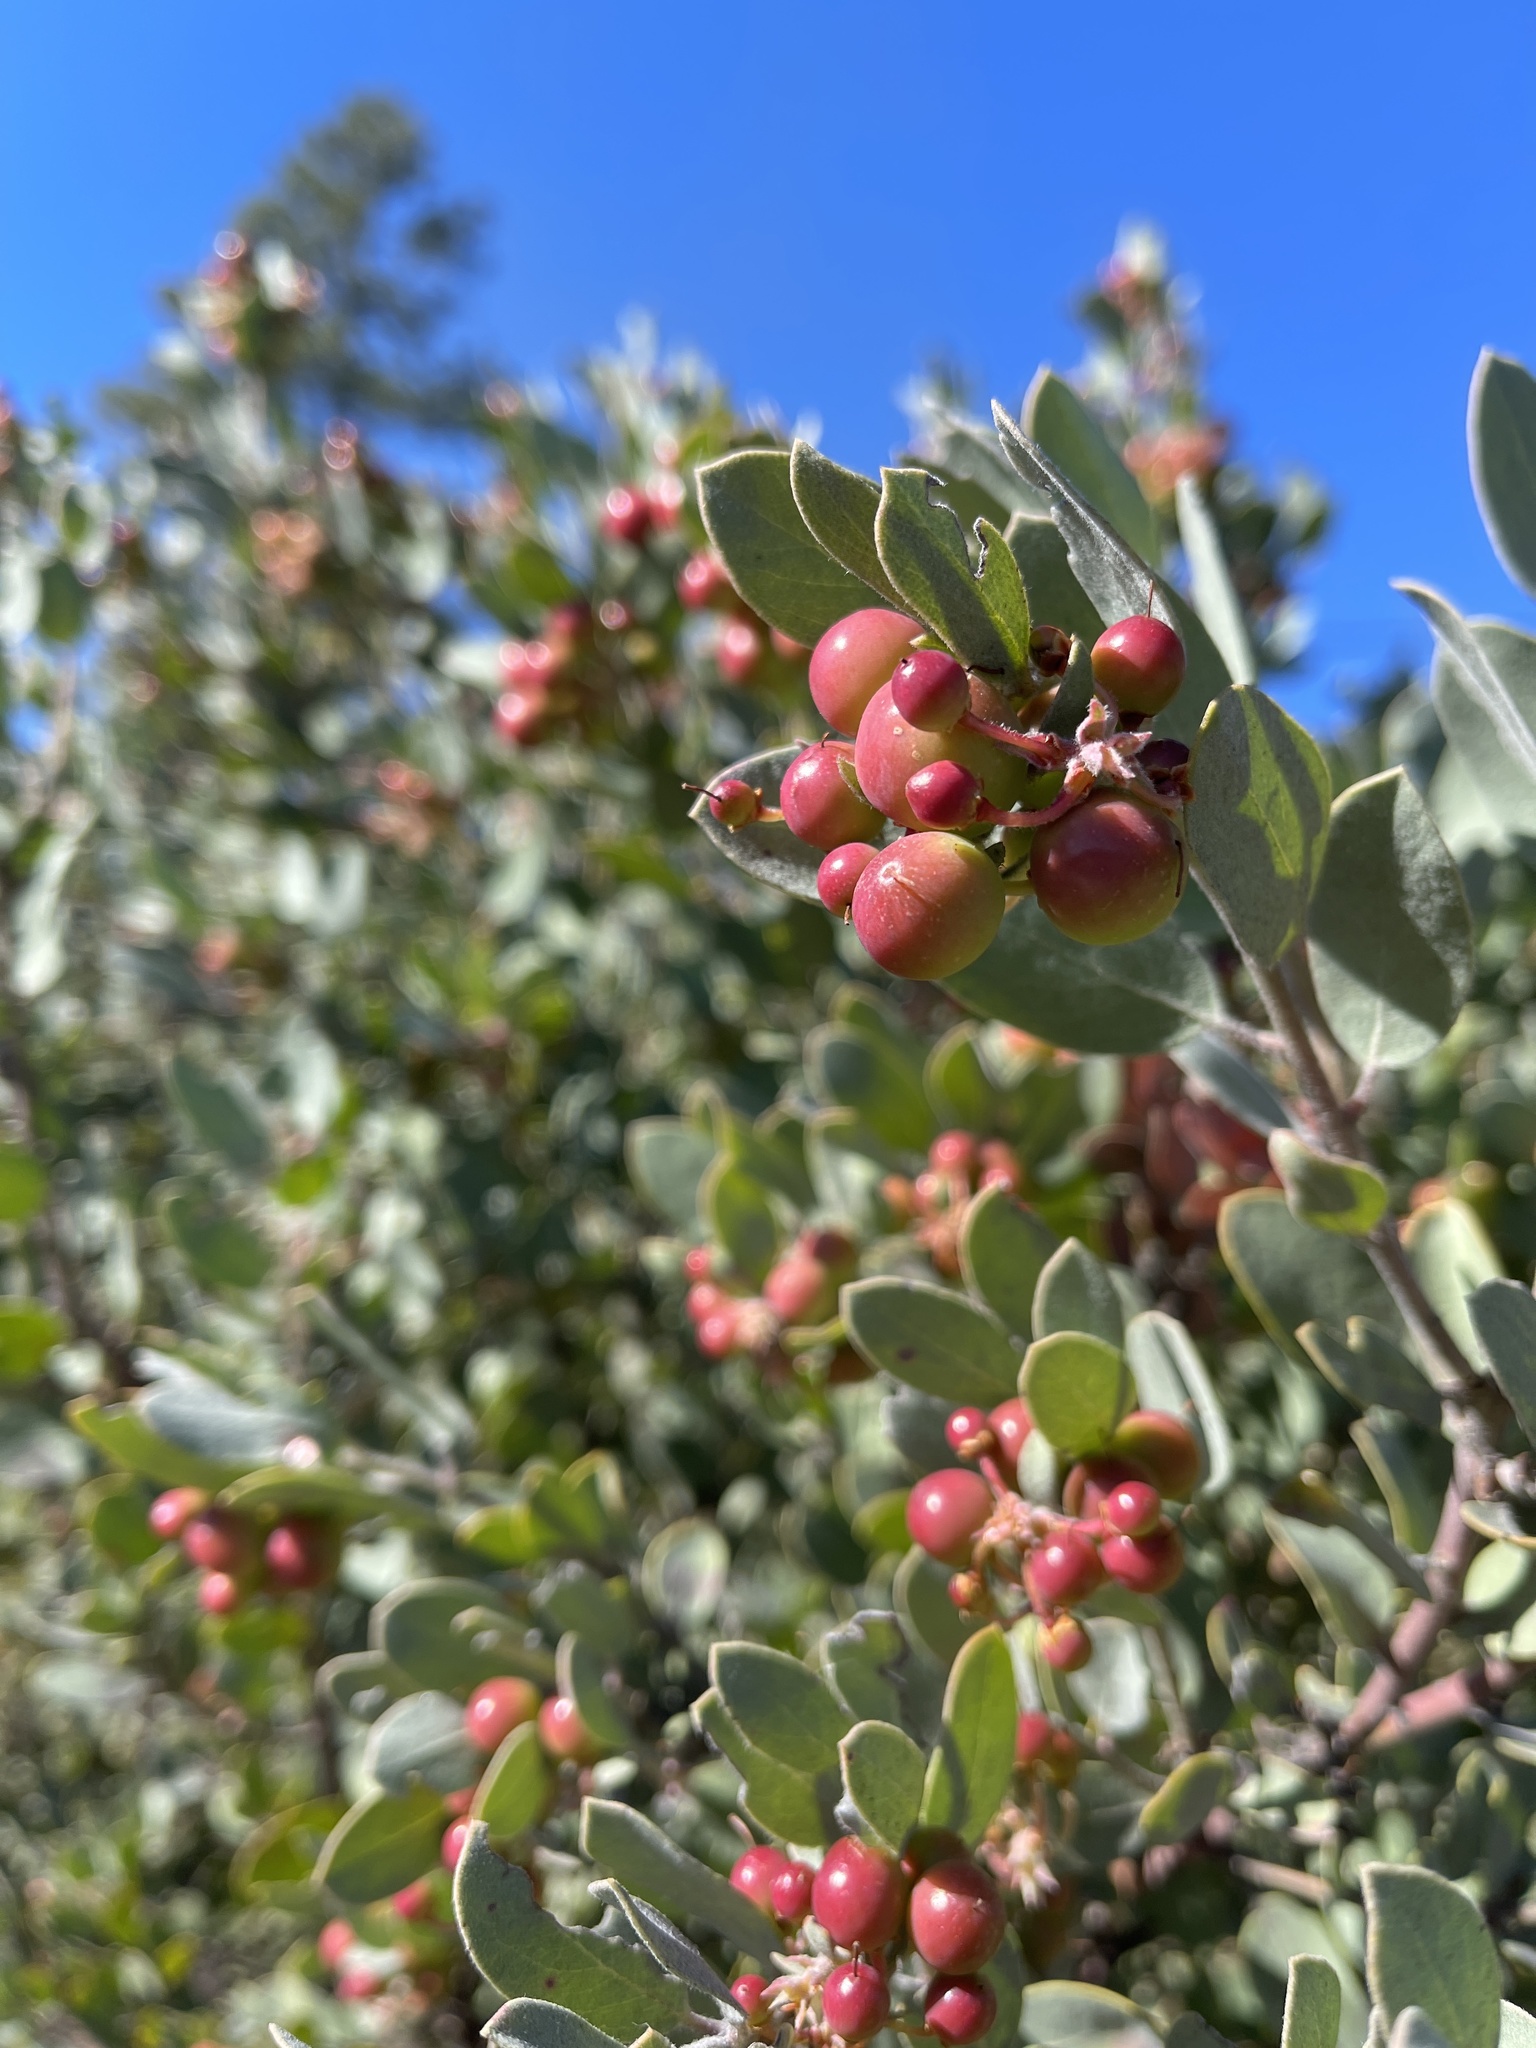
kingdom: Plantae
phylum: Tracheophyta
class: Magnoliopsida
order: Ericales
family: Ericaceae
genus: Arctostaphylos
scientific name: Arctostaphylos silvicola
